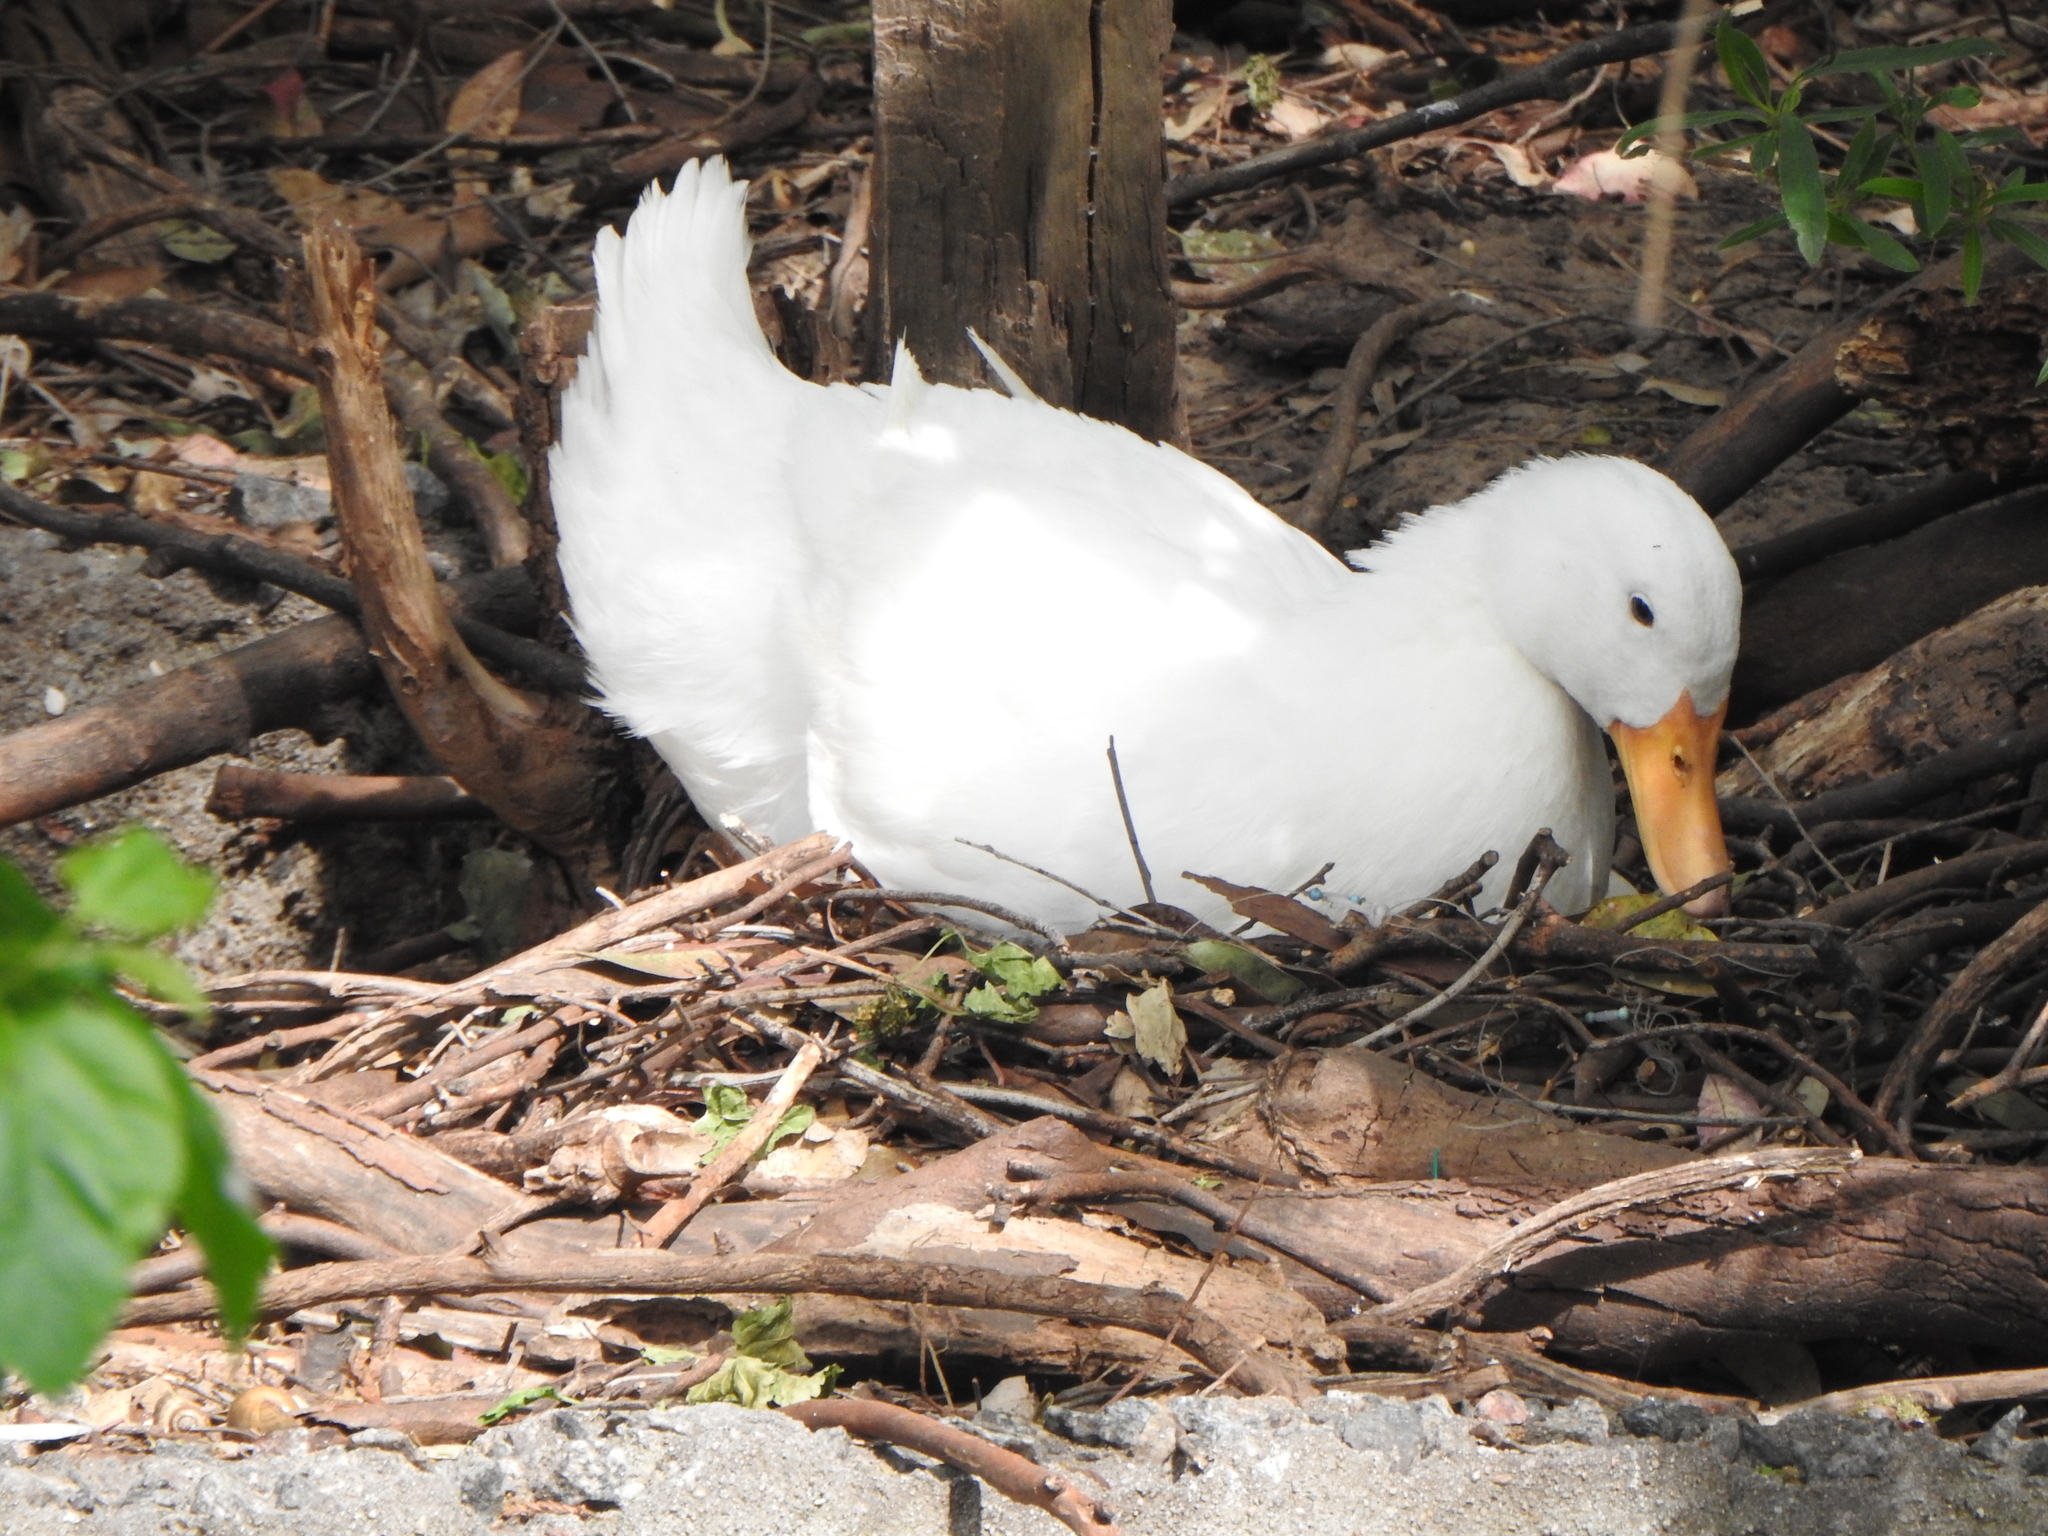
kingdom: Animalia
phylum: Chordata
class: Aves
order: Anseriformes
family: Anatidae
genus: Anas
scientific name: Anas platyrhynchos
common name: Mallard
